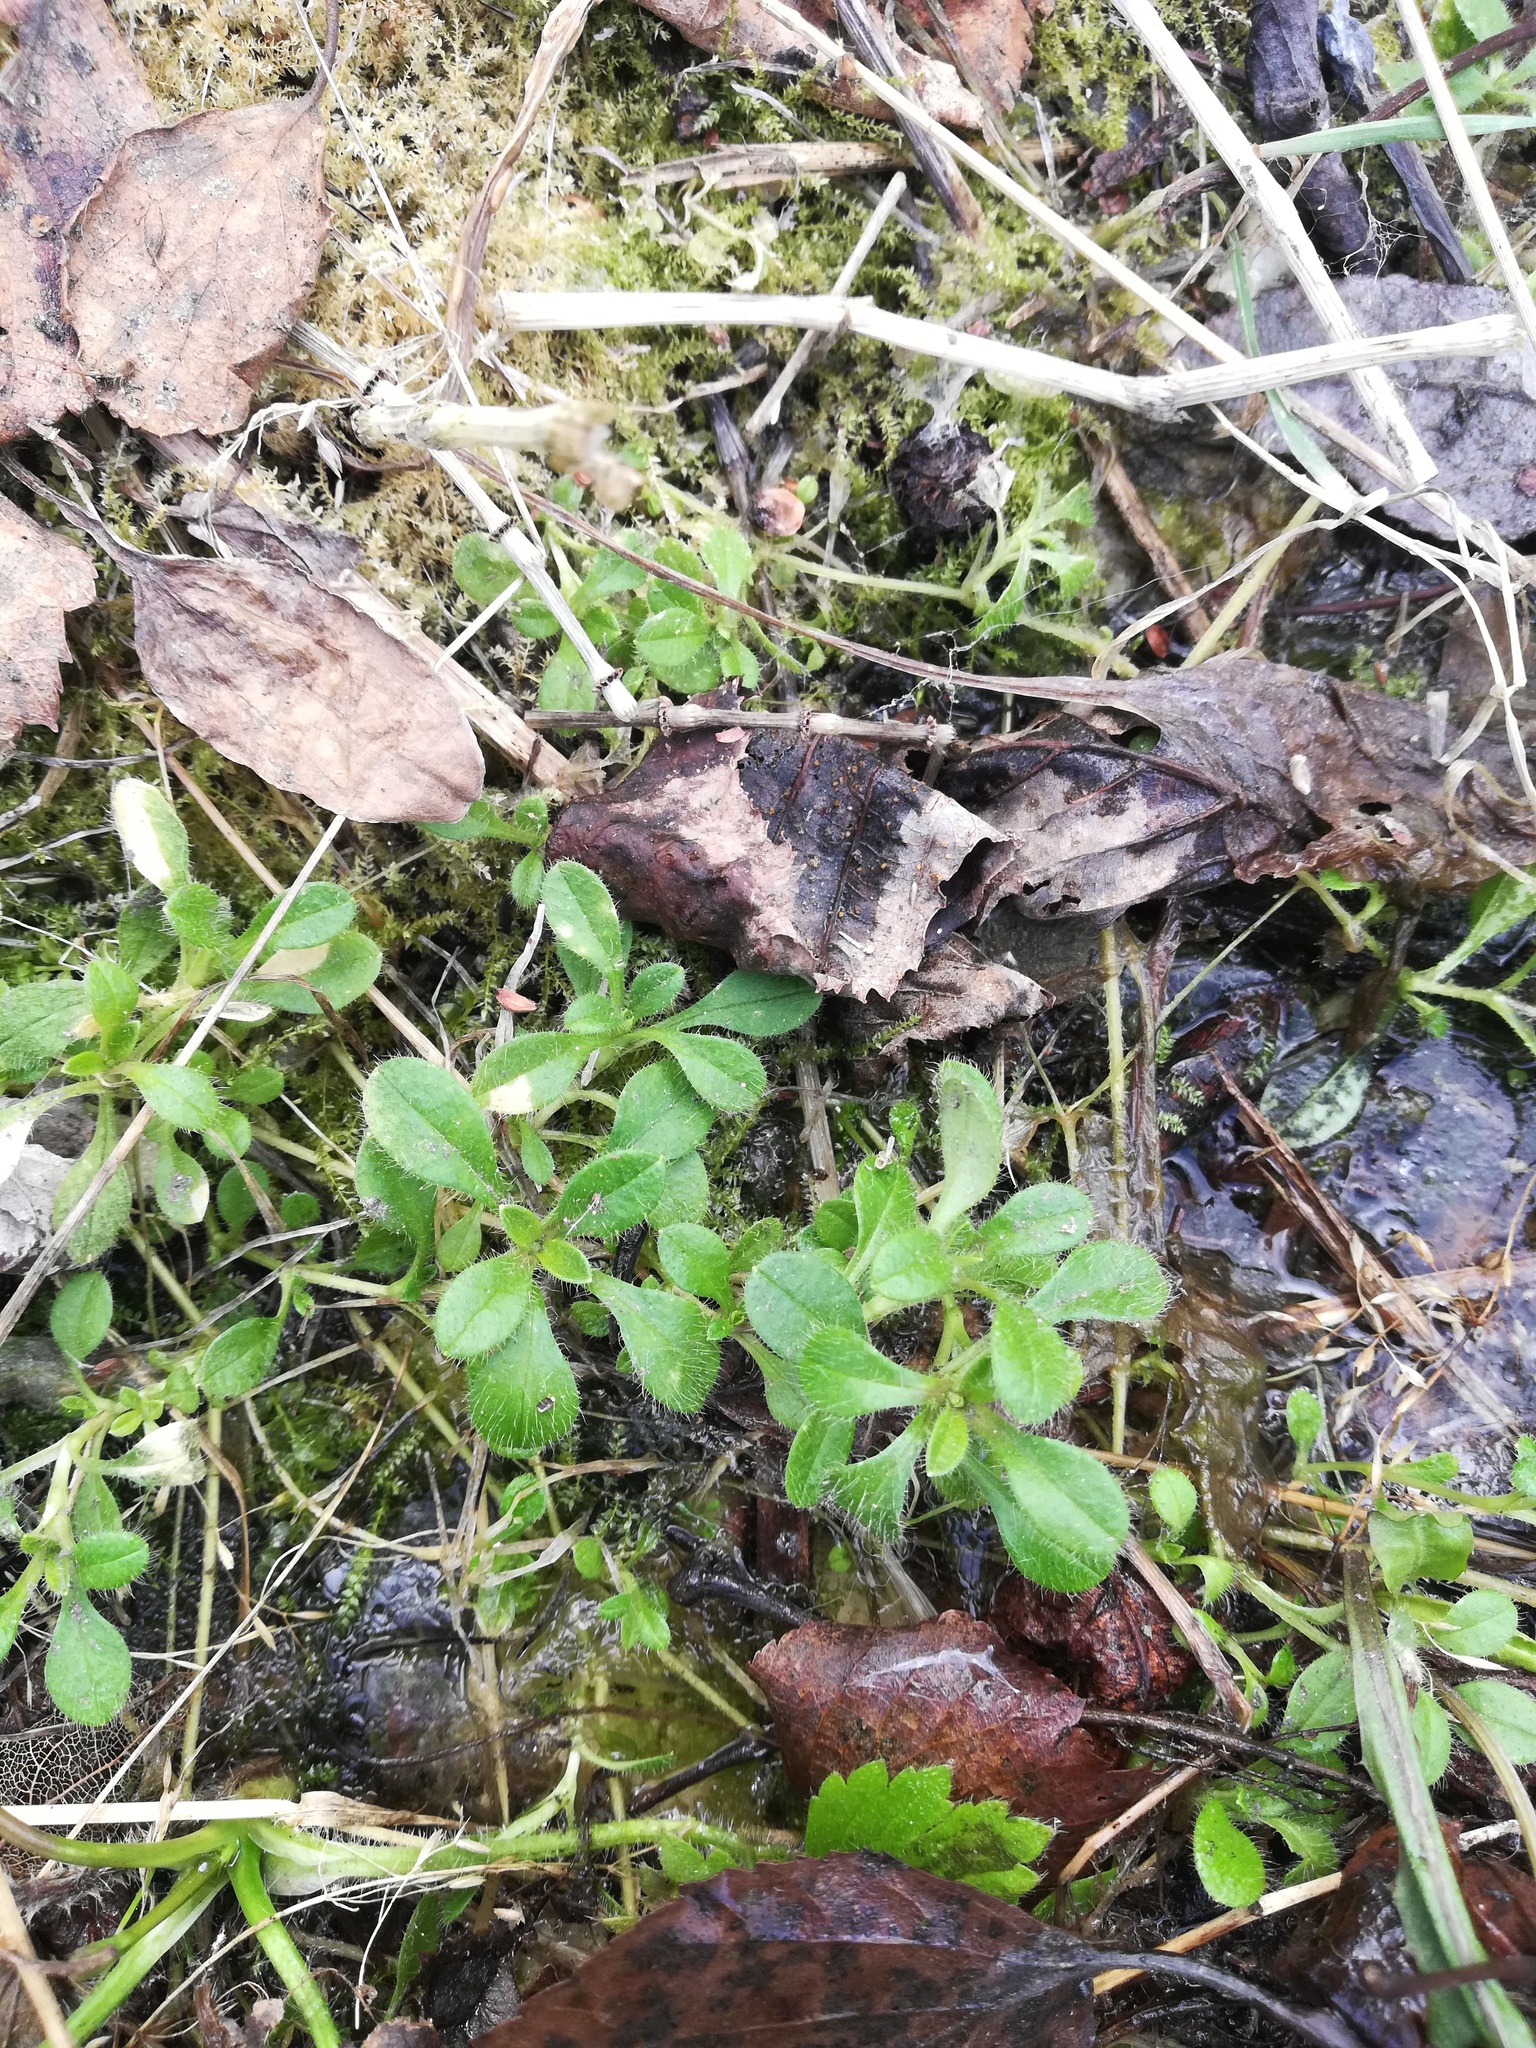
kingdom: Plantae
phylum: Tracheophyta
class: Magnoliopsida
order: Caryophyllales
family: Caryophyllaceae
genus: Cerastium
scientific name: Cerastium holosteoides
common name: Big chickweed
